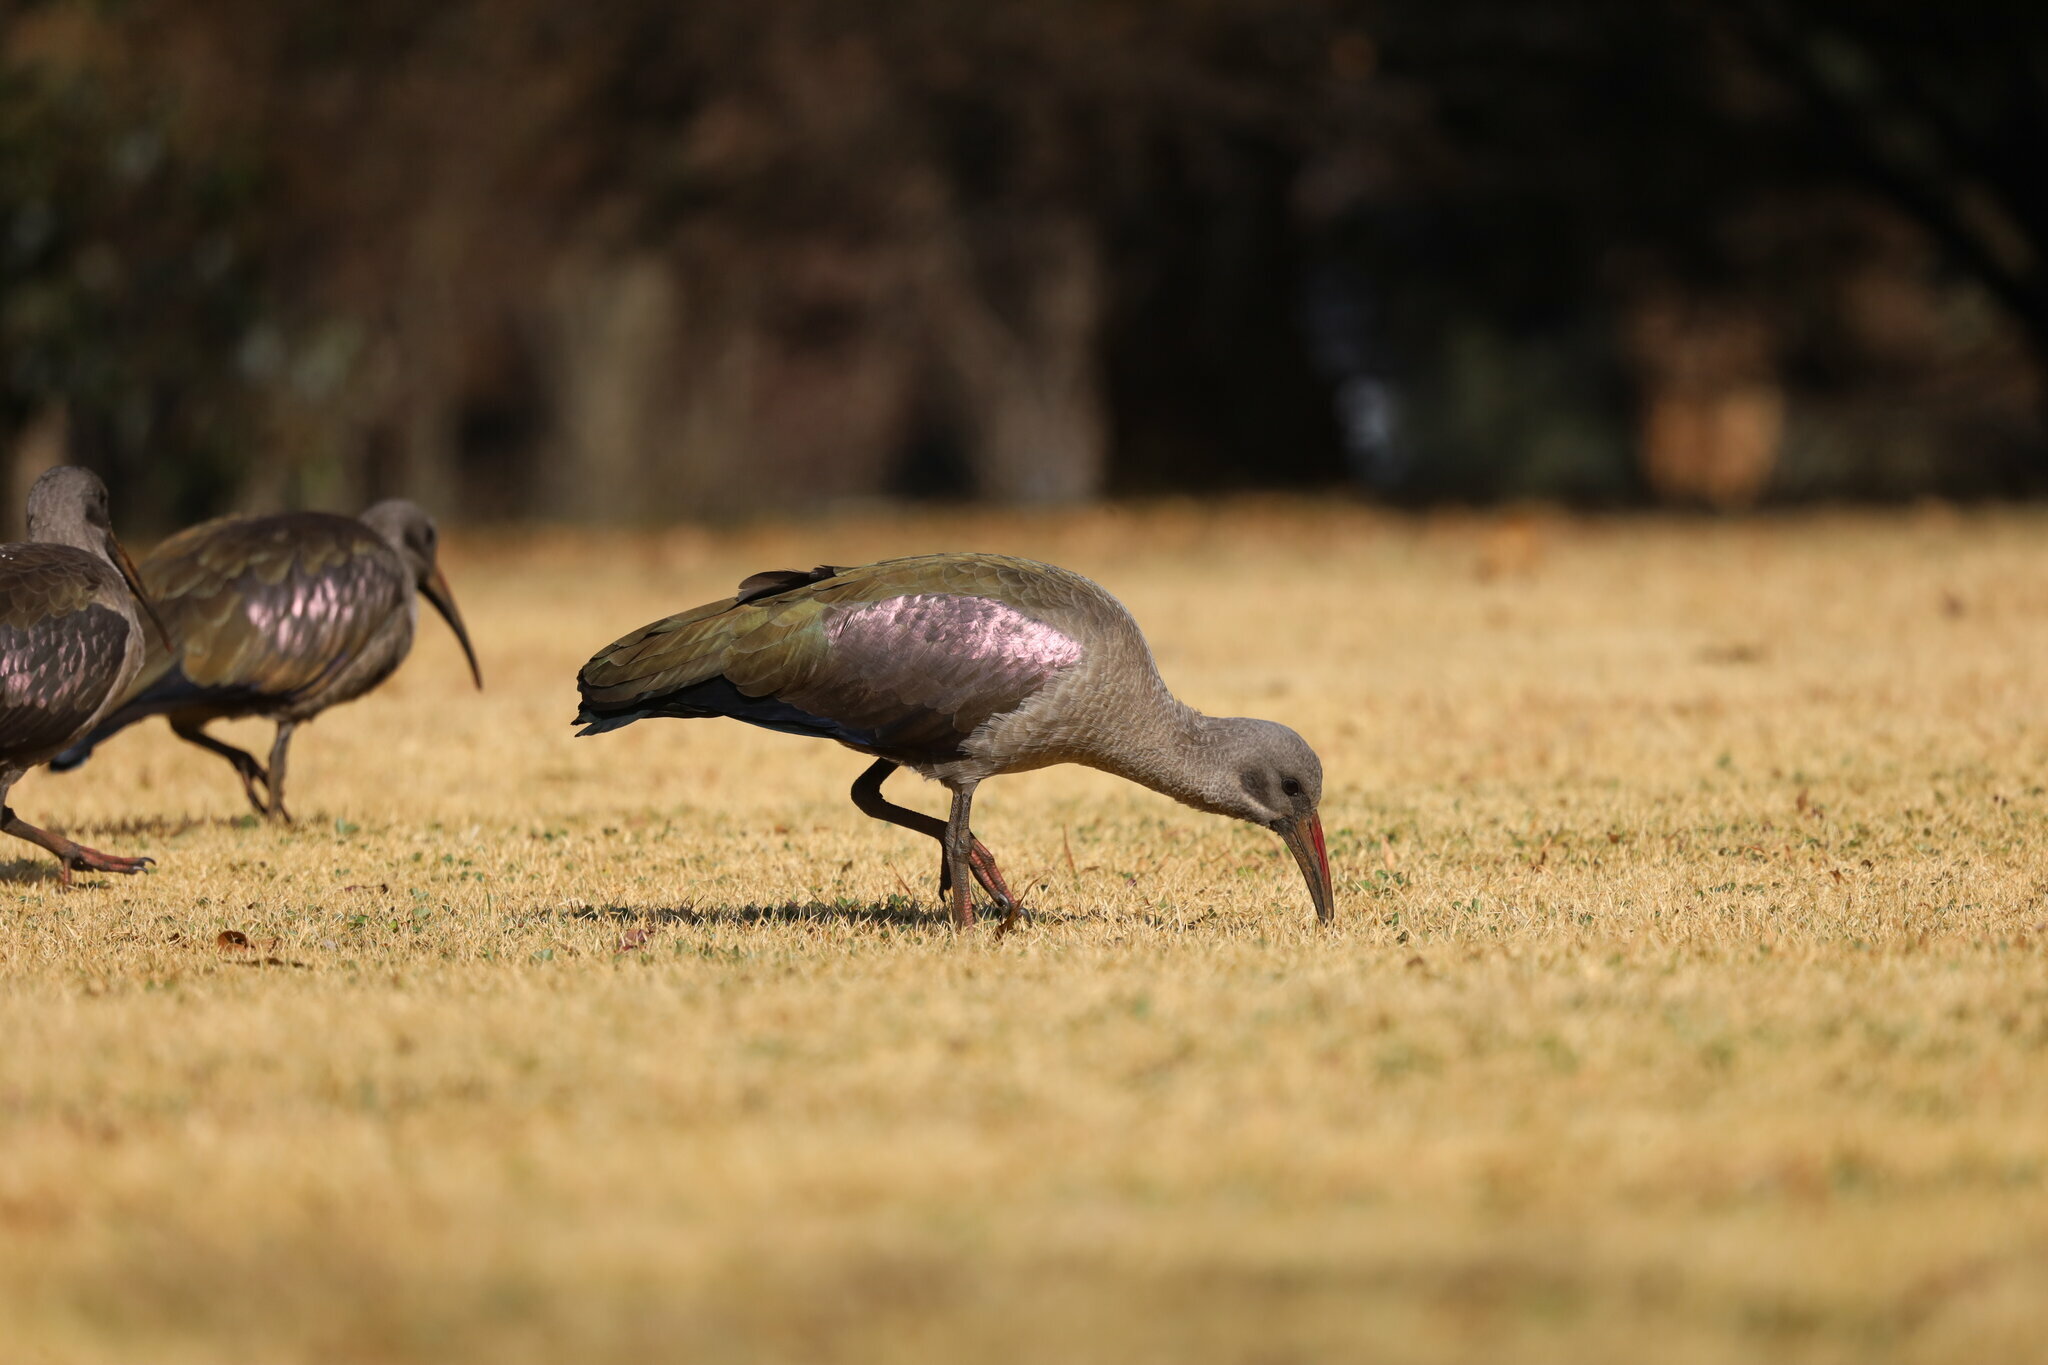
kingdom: Animalia
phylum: Chordata
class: Aves
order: Pelecaniformes
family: Threskiornithidae
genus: Bostrychia
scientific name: Bostrychia hagedash
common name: Hadada ibis
